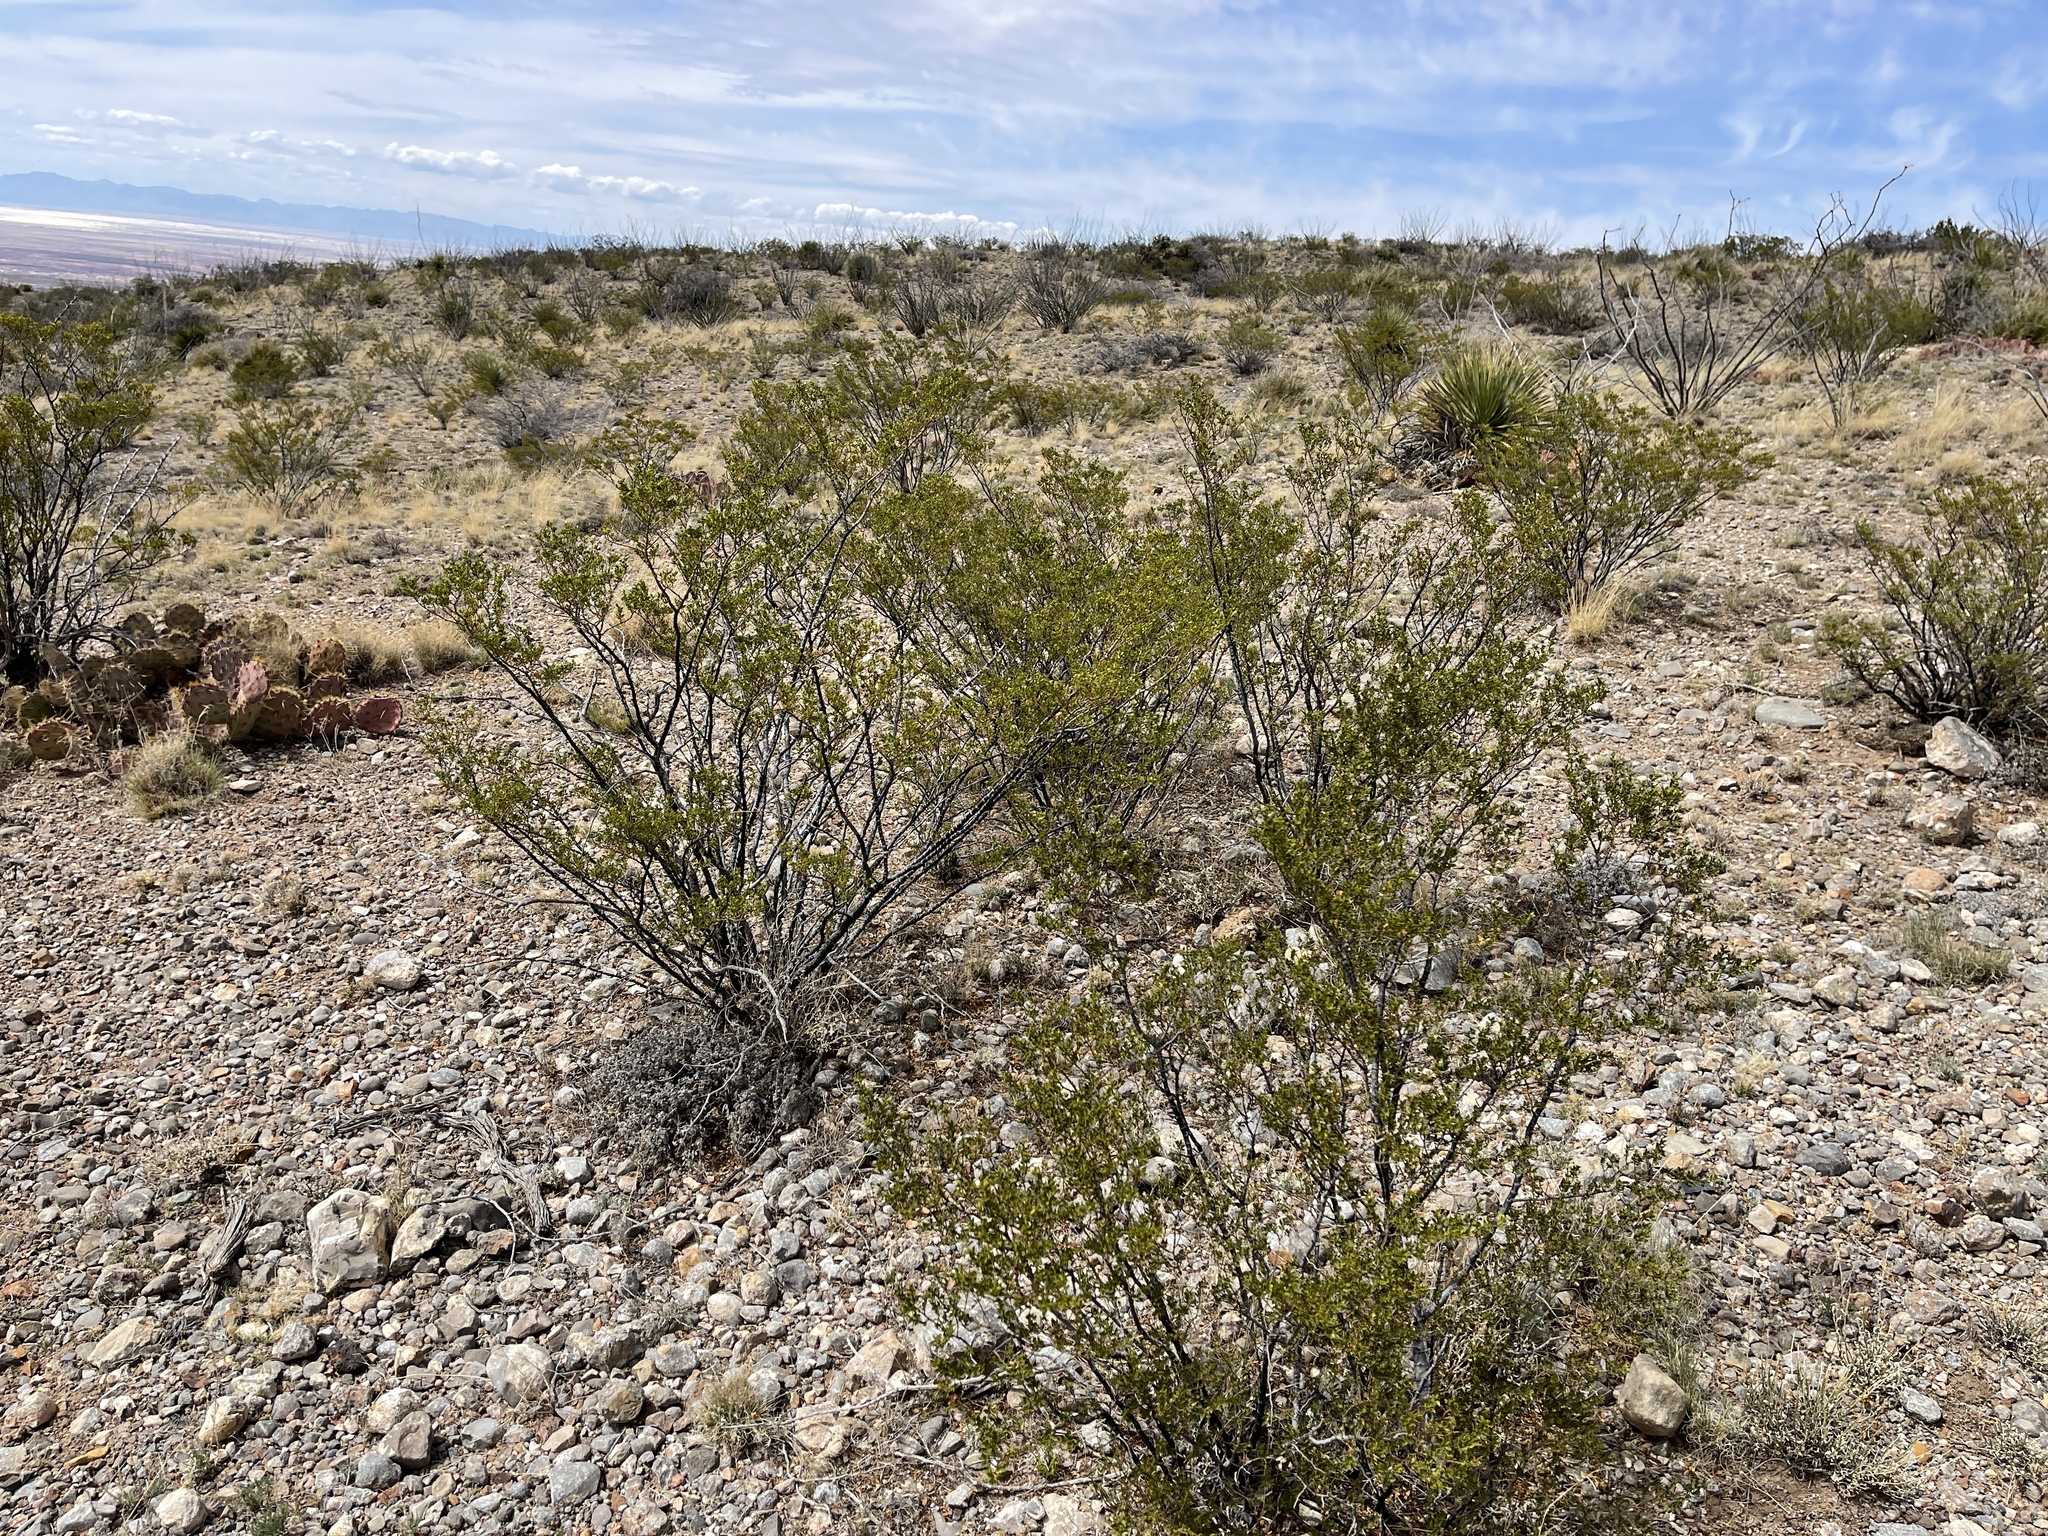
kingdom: Plantae
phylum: Tracheophyta
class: Magnoliopsida
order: Zygophyllales
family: Zygophyllaceae
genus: Larrea
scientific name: Larrea tridentata
